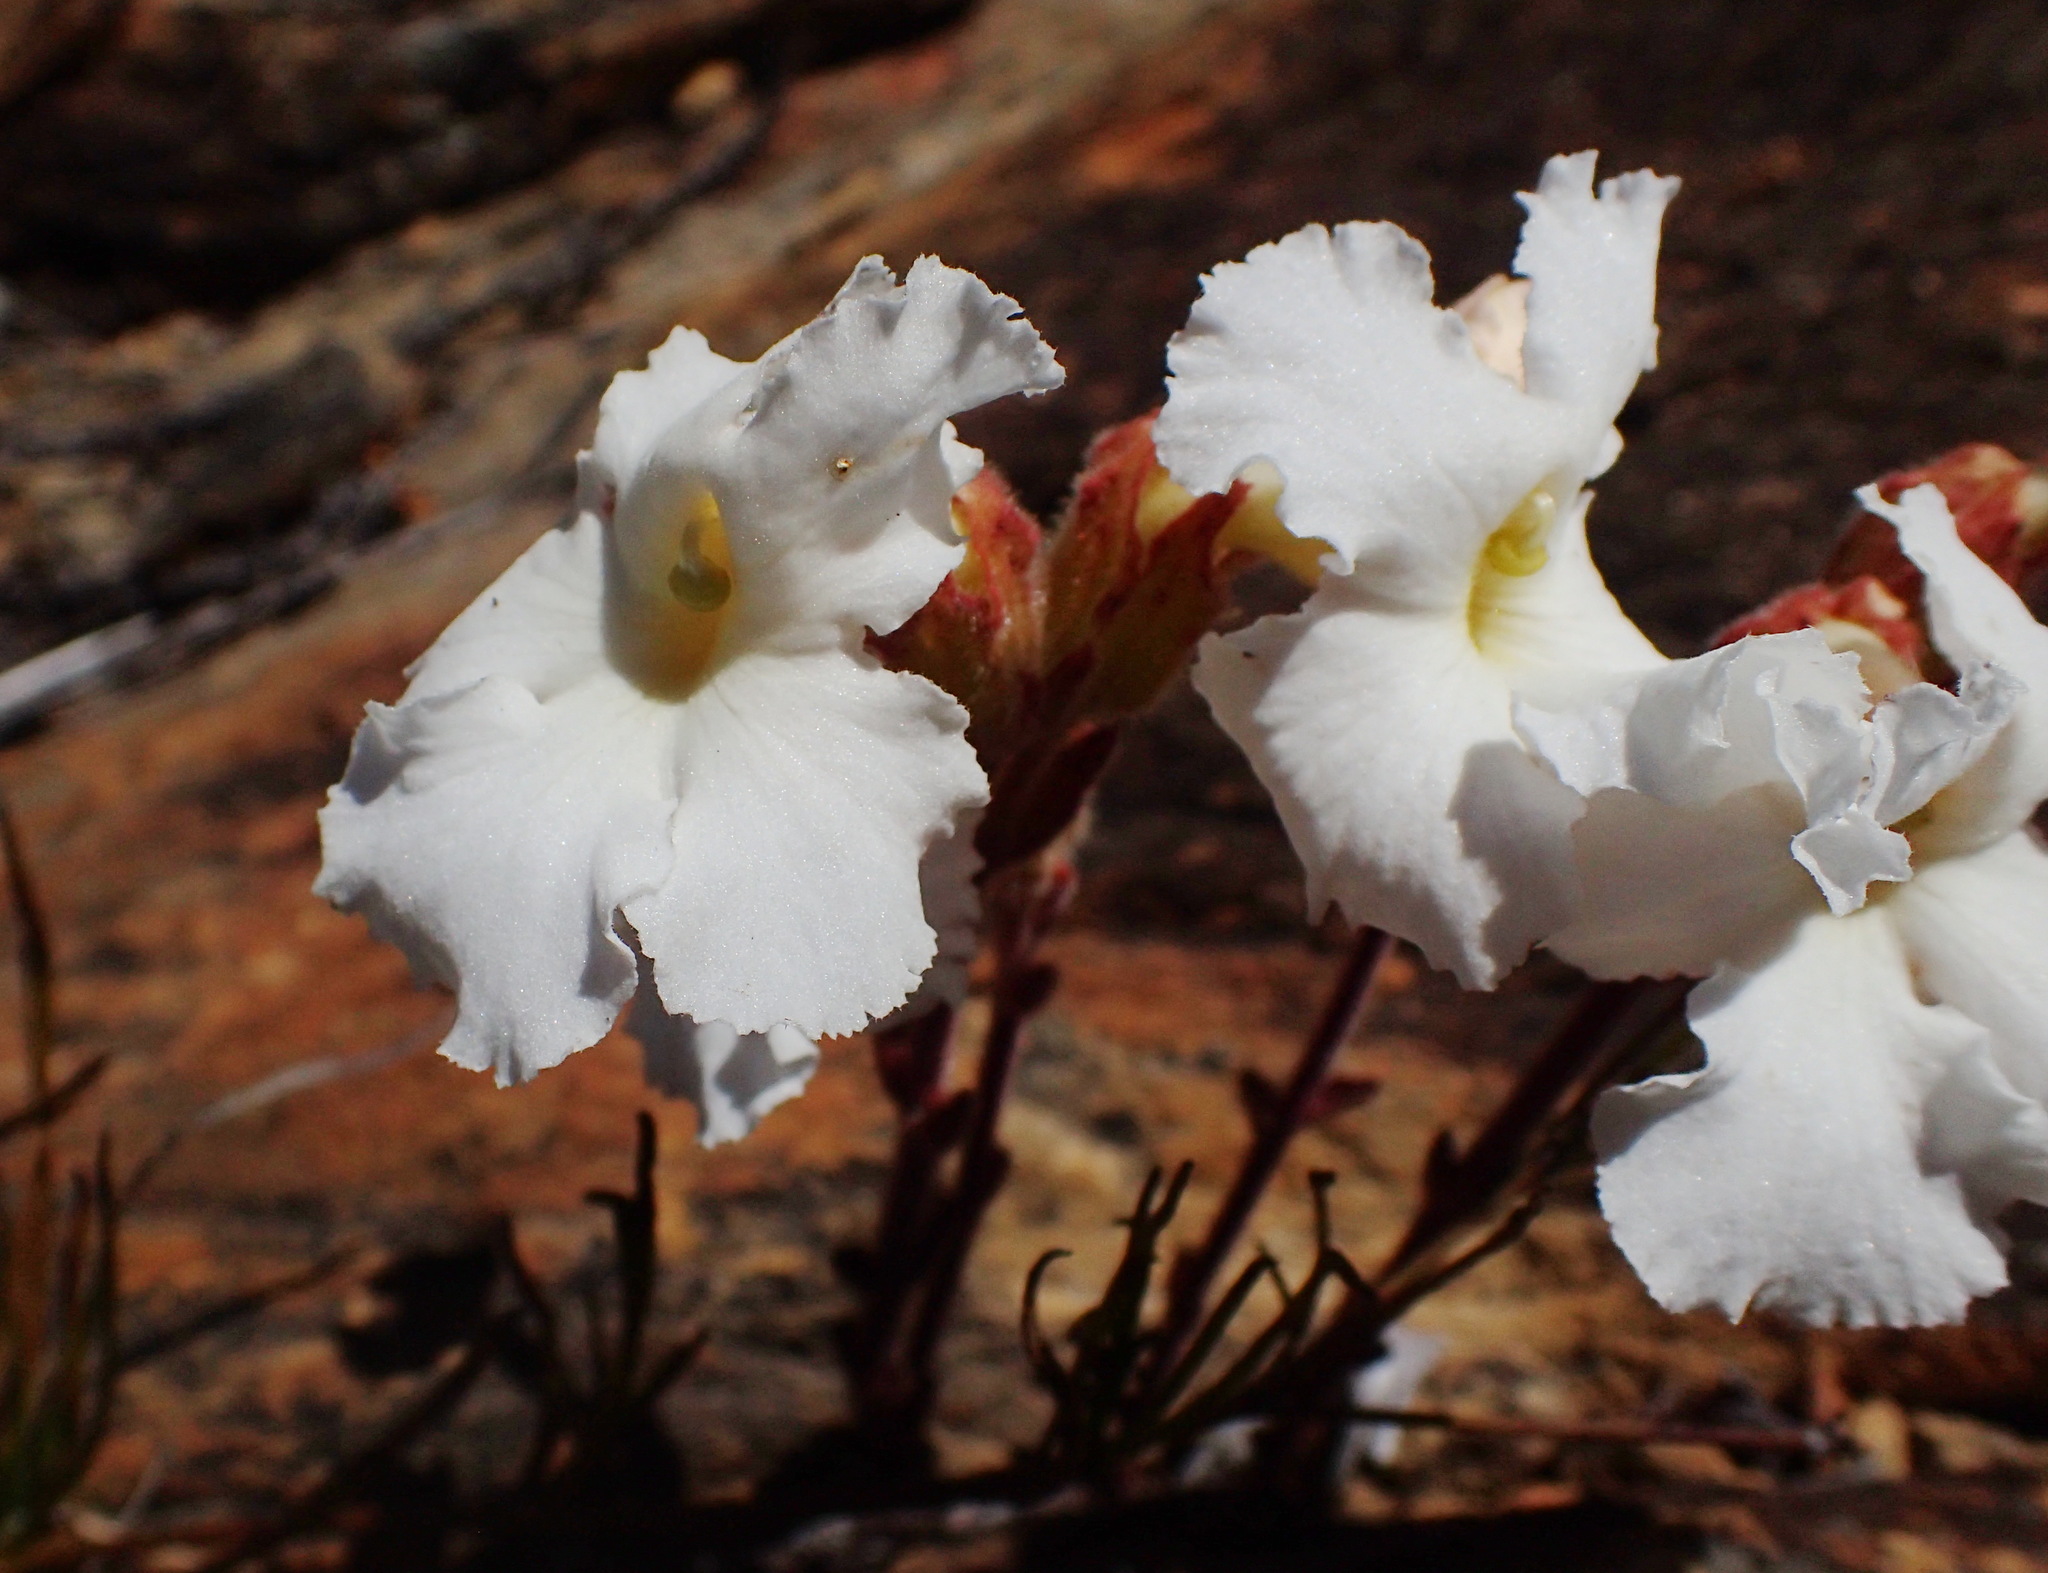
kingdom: Plantae
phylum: Tracheophyta
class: Magnoliopsida
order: Lamiales
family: Orobanchaceae
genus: Harveya
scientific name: Harveya capensis
